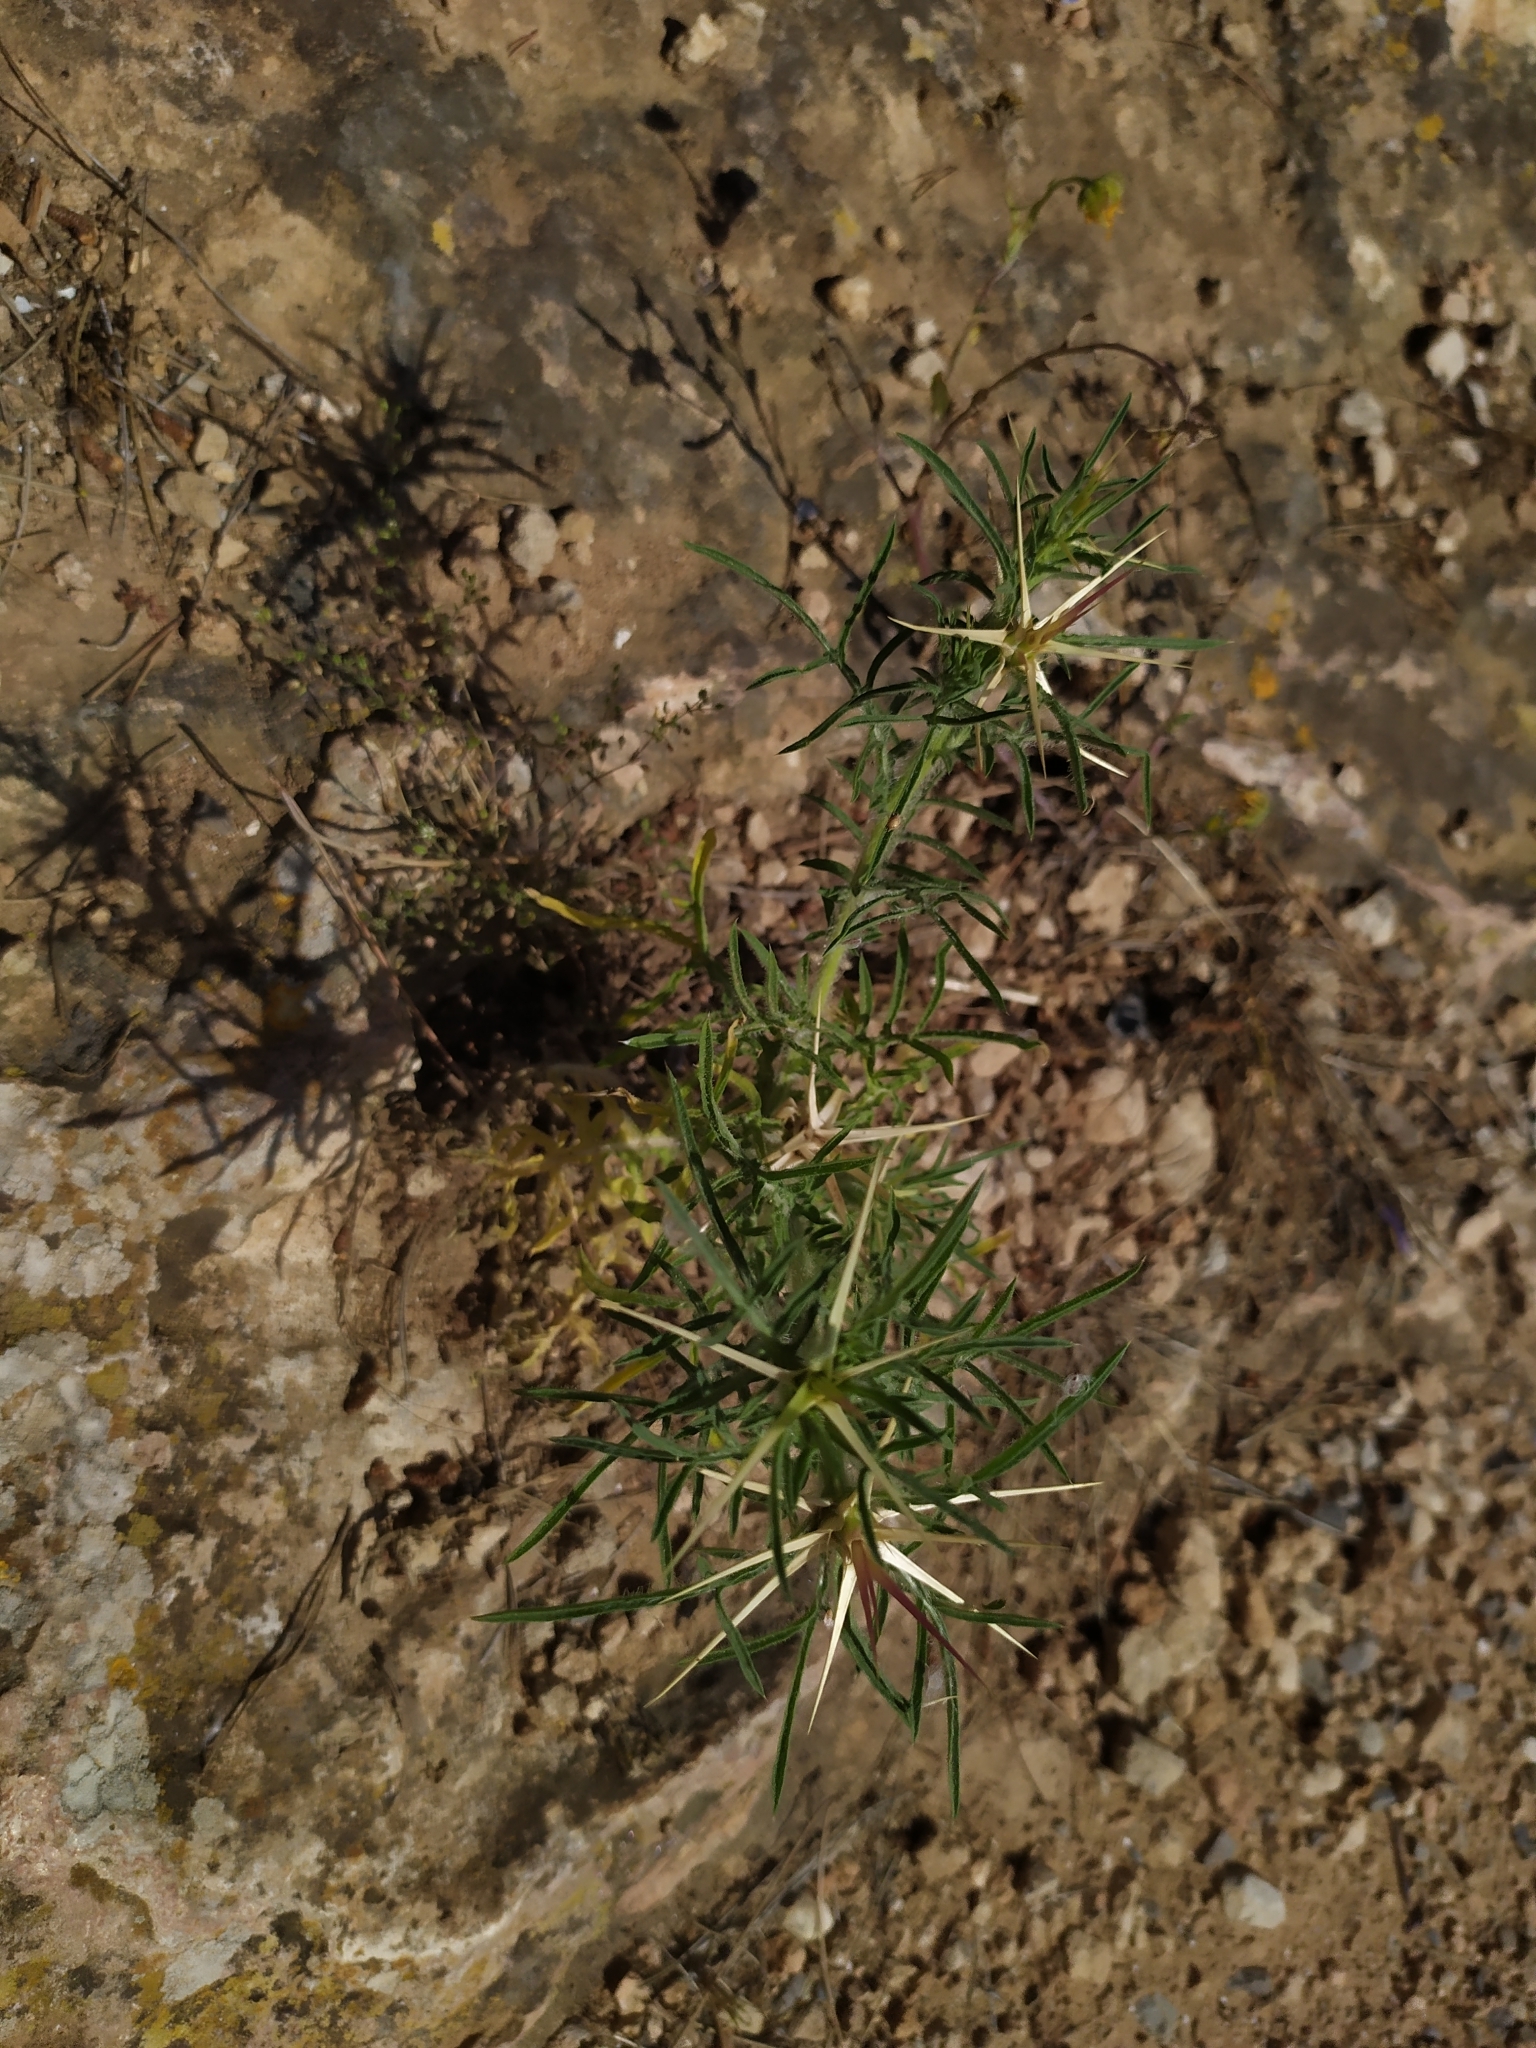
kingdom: Plantae
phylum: Tracheophyta
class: Magnoliopsida
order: Asterales
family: Asteraceae
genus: Centaurea
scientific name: Centaurea calcitrapa
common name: Red star-thistle
